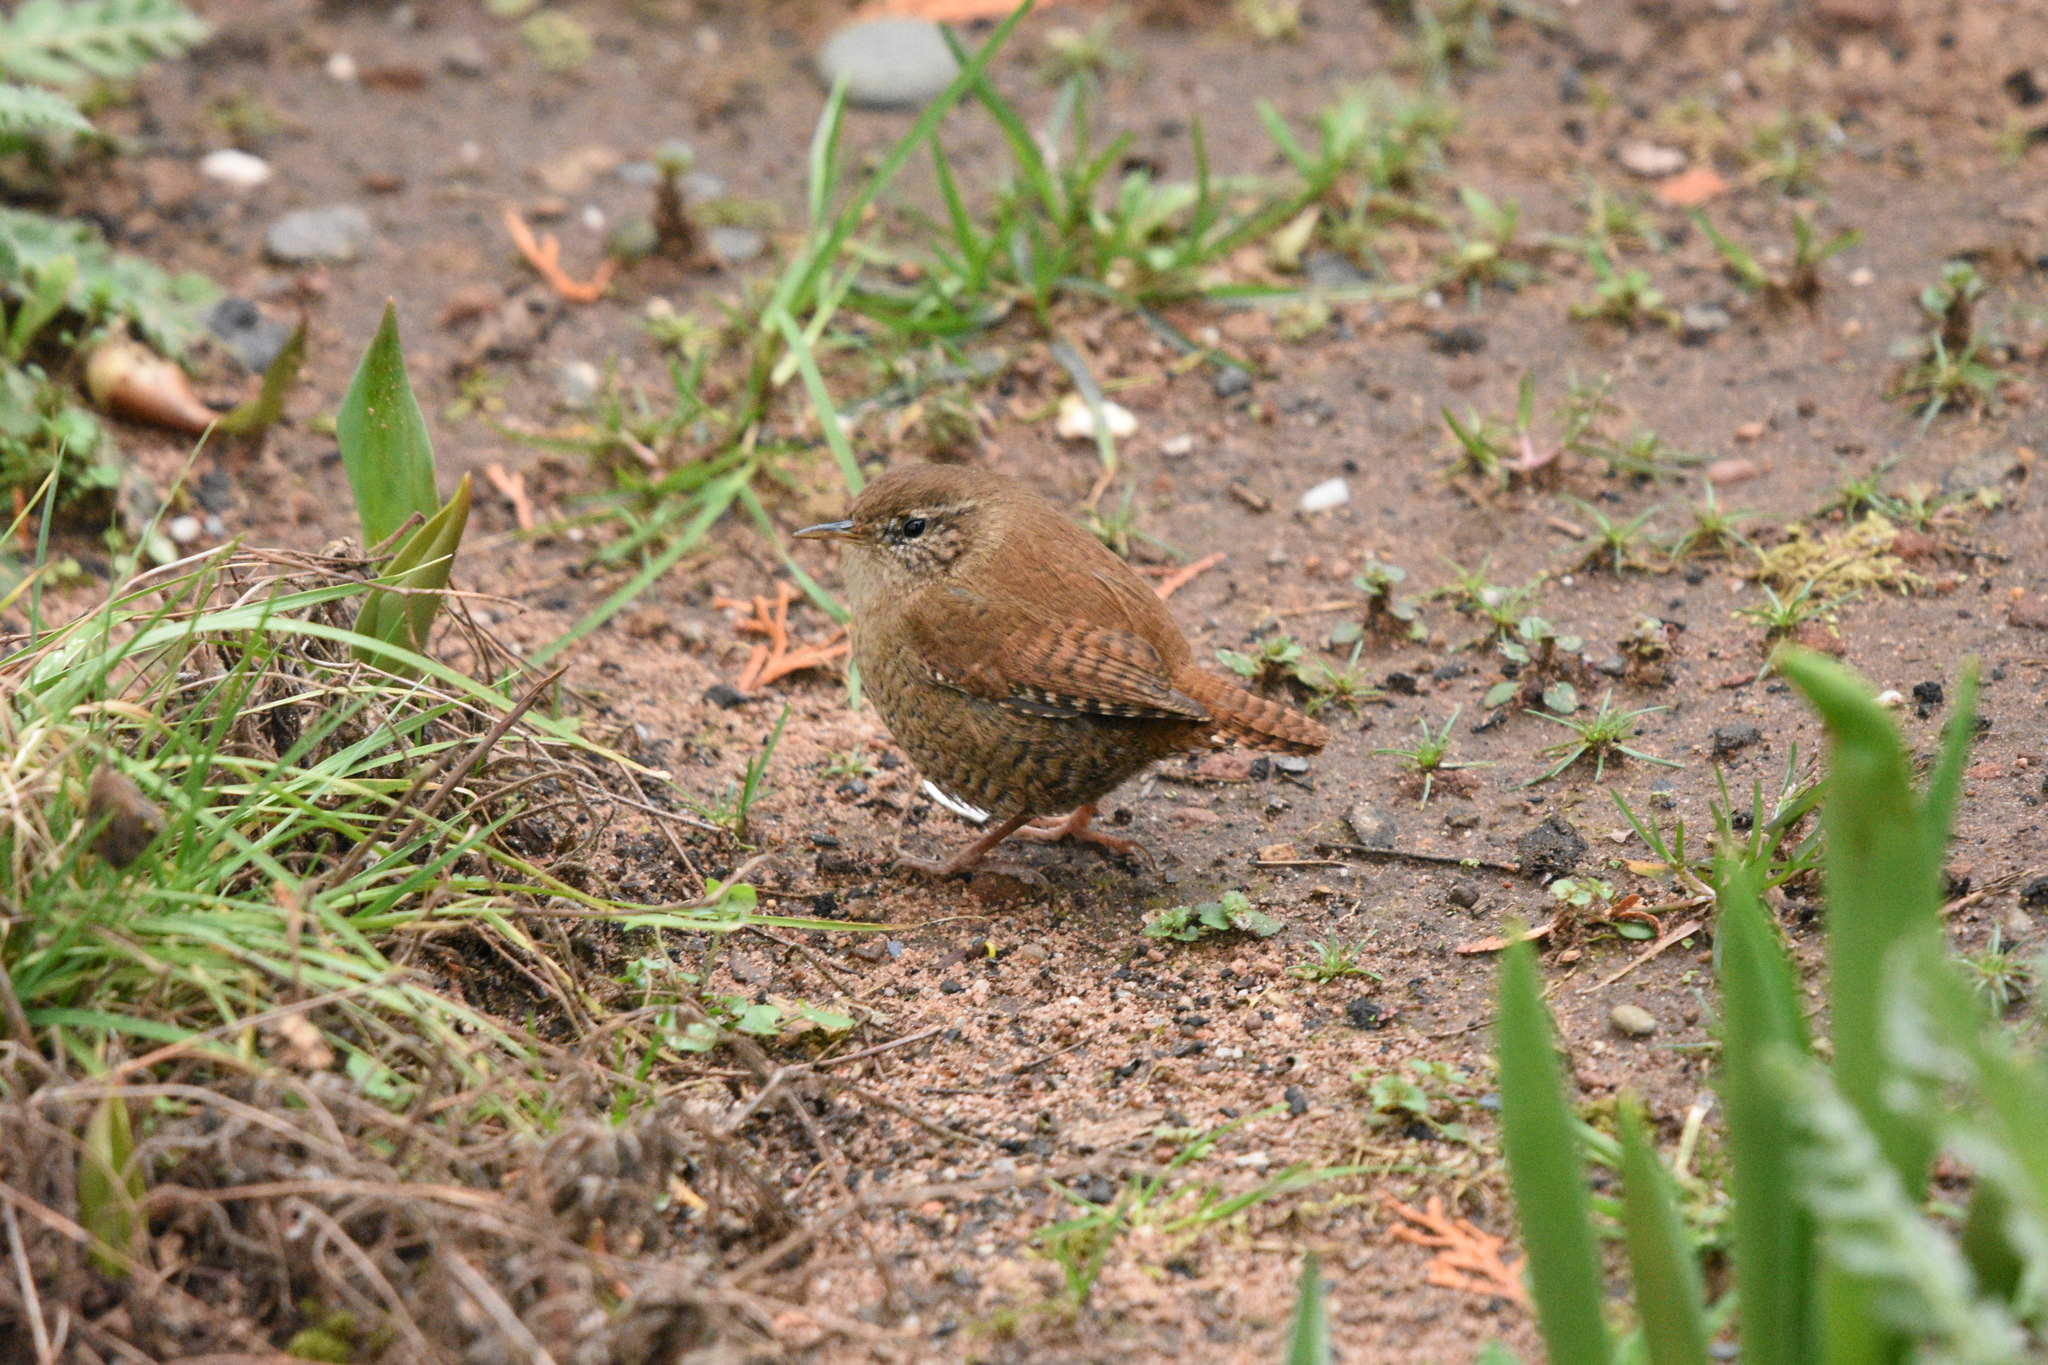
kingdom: Animalia
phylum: Chordata
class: Aves
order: Passeriformes
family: Troglodytidae
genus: Troglodytes
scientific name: Troglodytes troglodytes
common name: Eurasian wren
